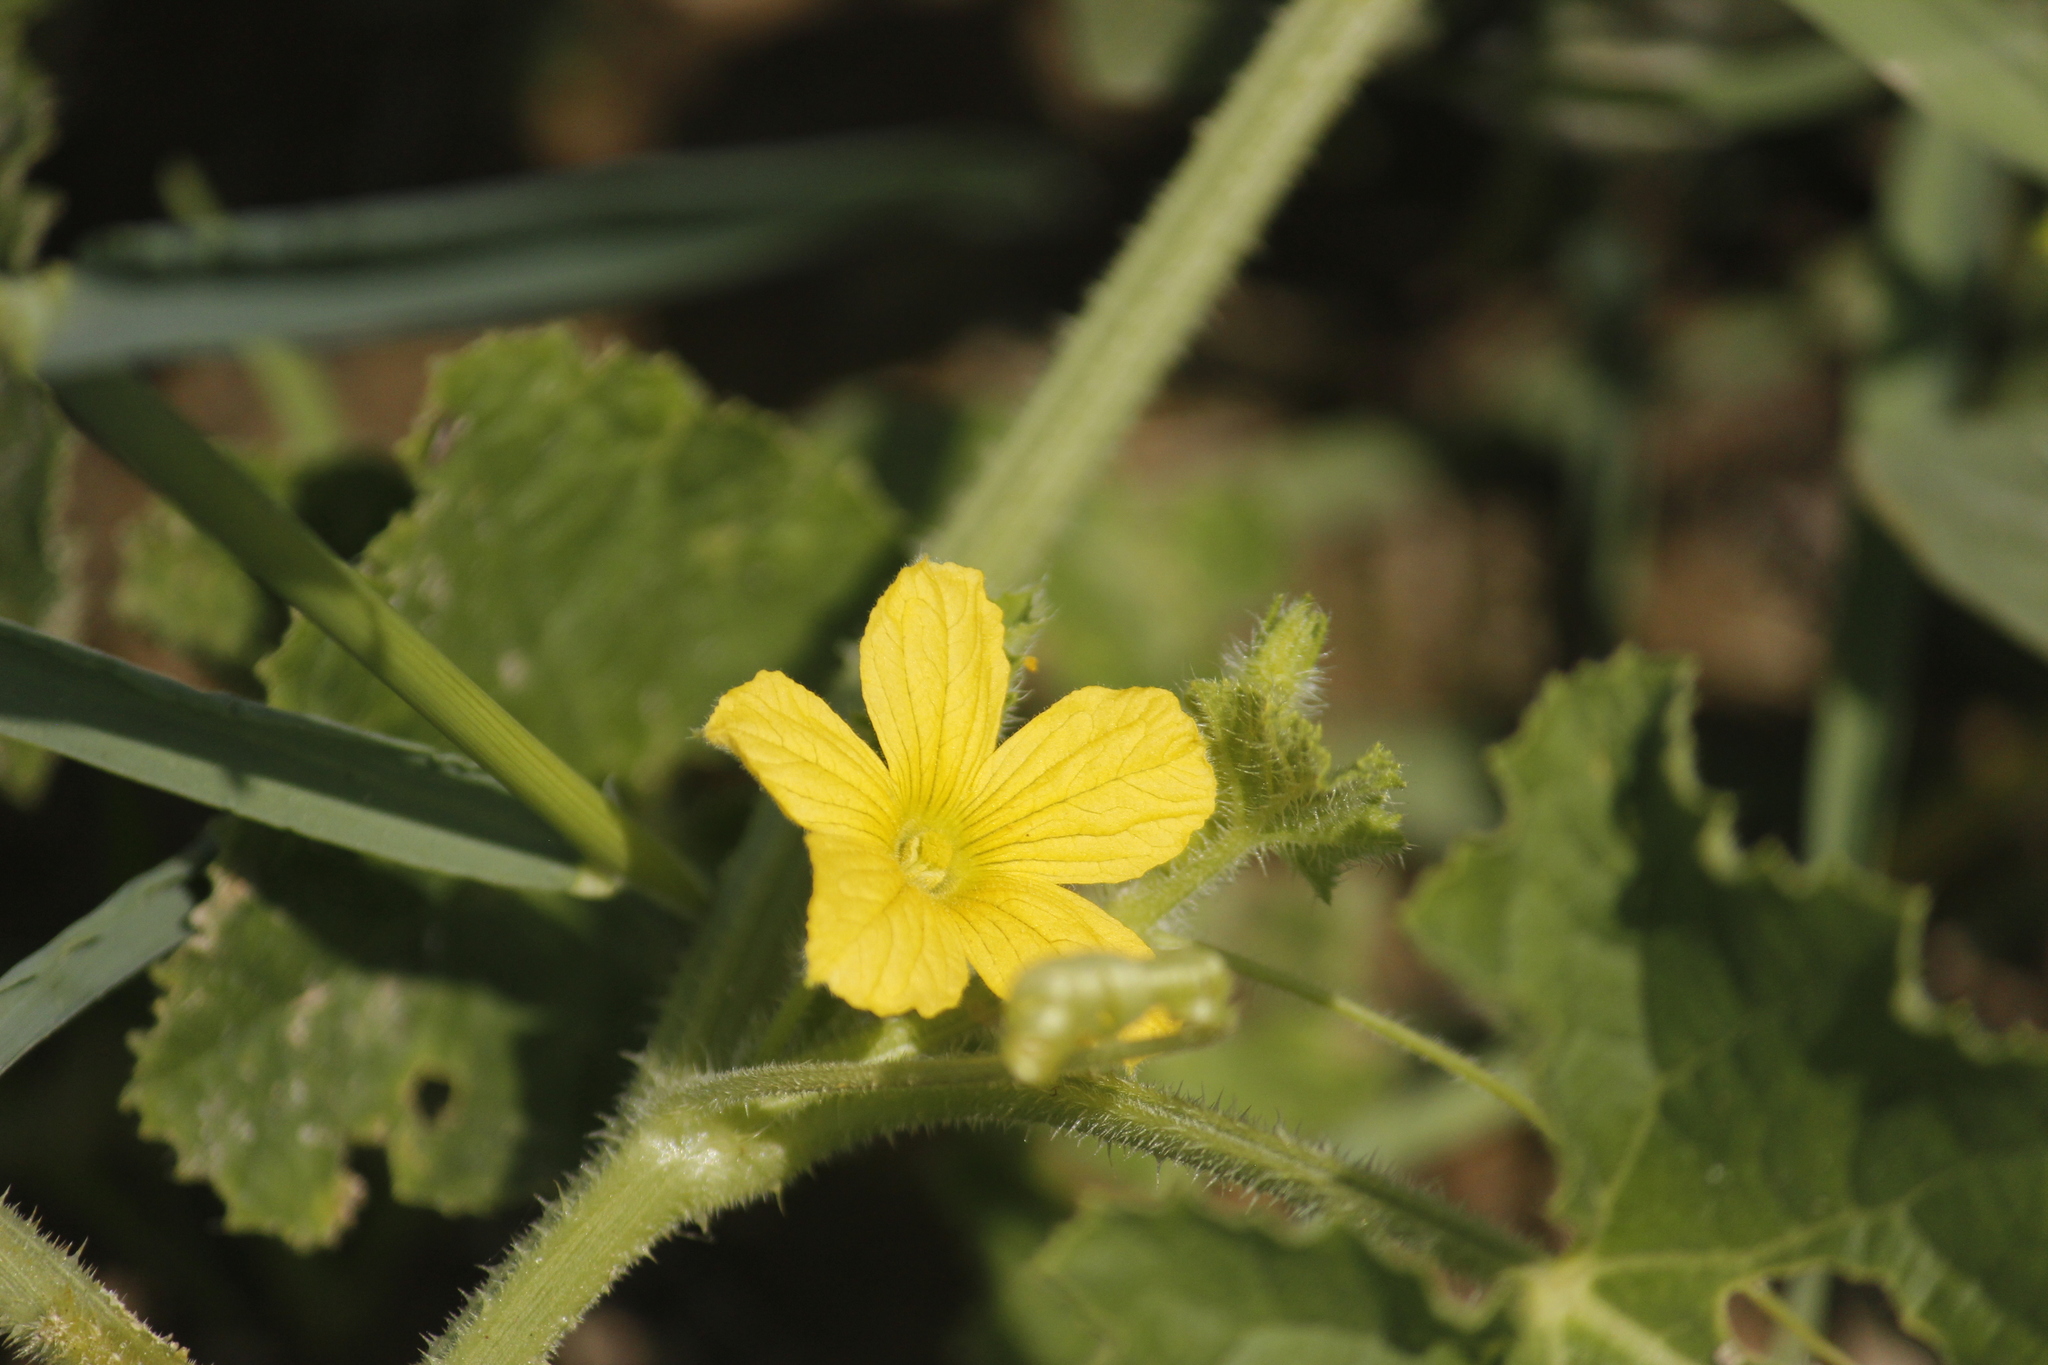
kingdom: Plantae
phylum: Tracheophyta
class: Magnoliopsida
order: Cucurbitales
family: Cucurbitaceae
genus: Cucumis
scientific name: Cucumis dipsaceus
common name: Hedgehog gourd
